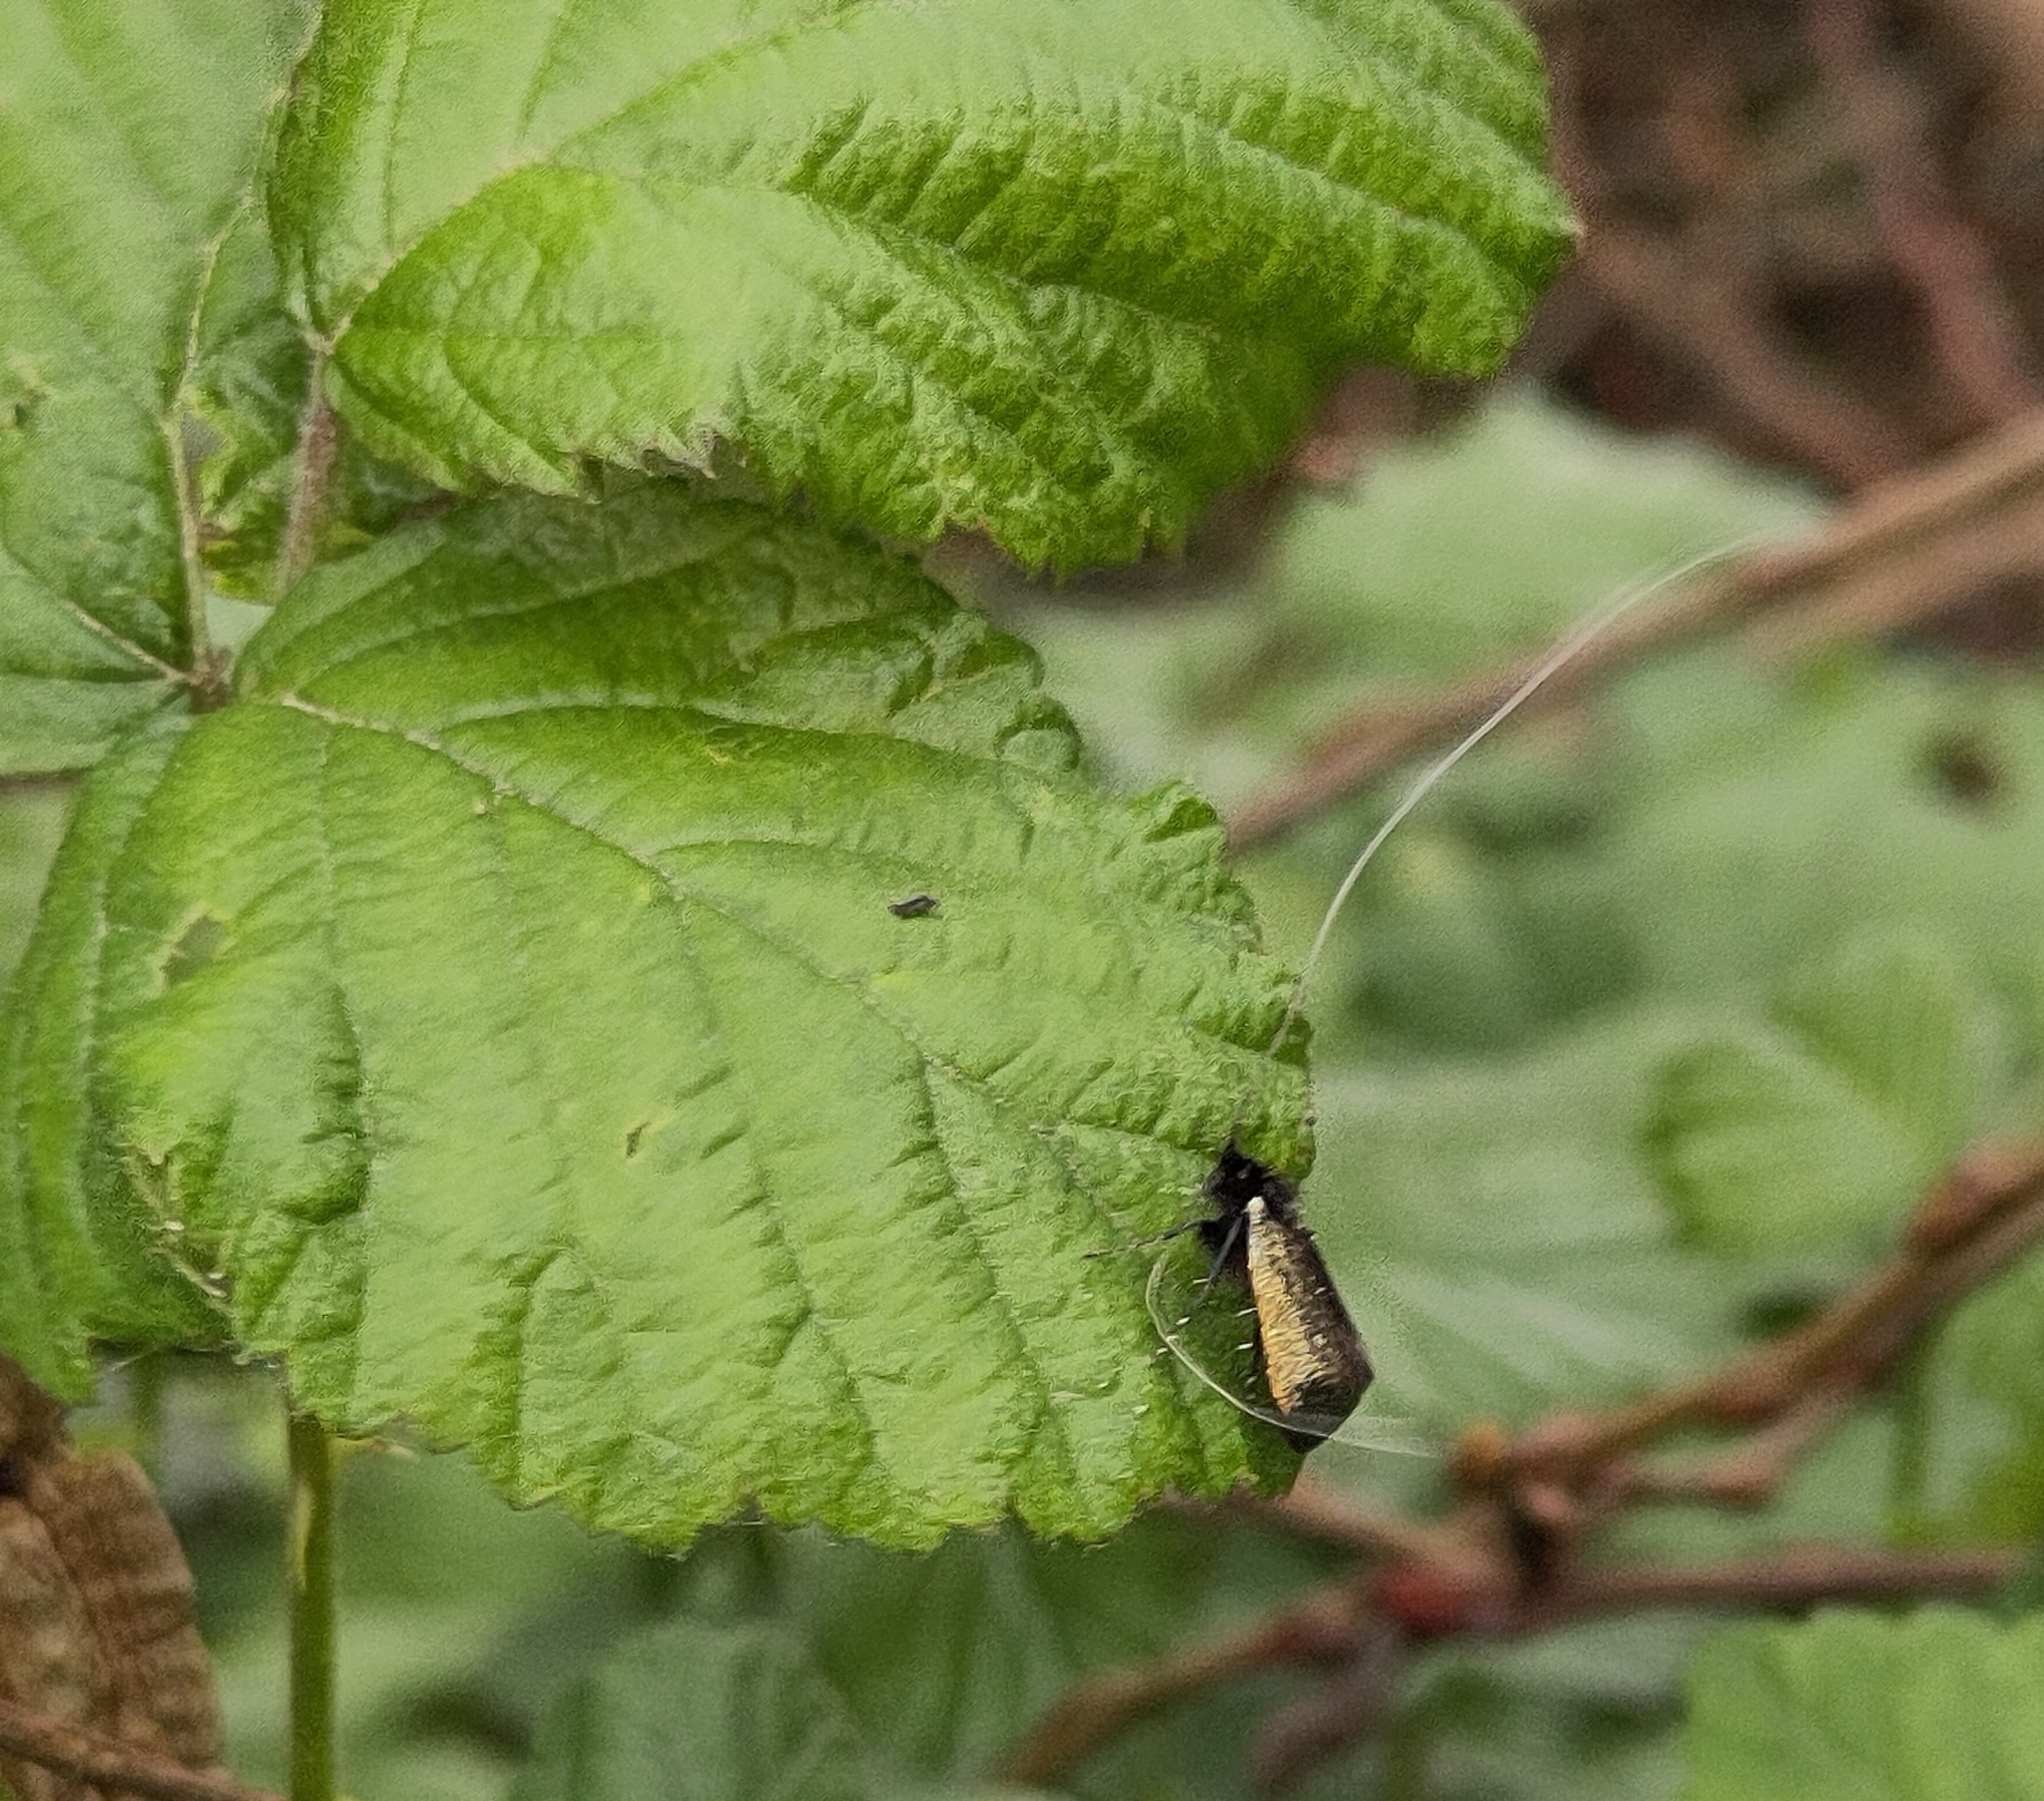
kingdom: Animalia
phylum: Arthropoda
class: Insecta
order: Lepidoptera
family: Adelidae
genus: Adela
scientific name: Adela viridella
